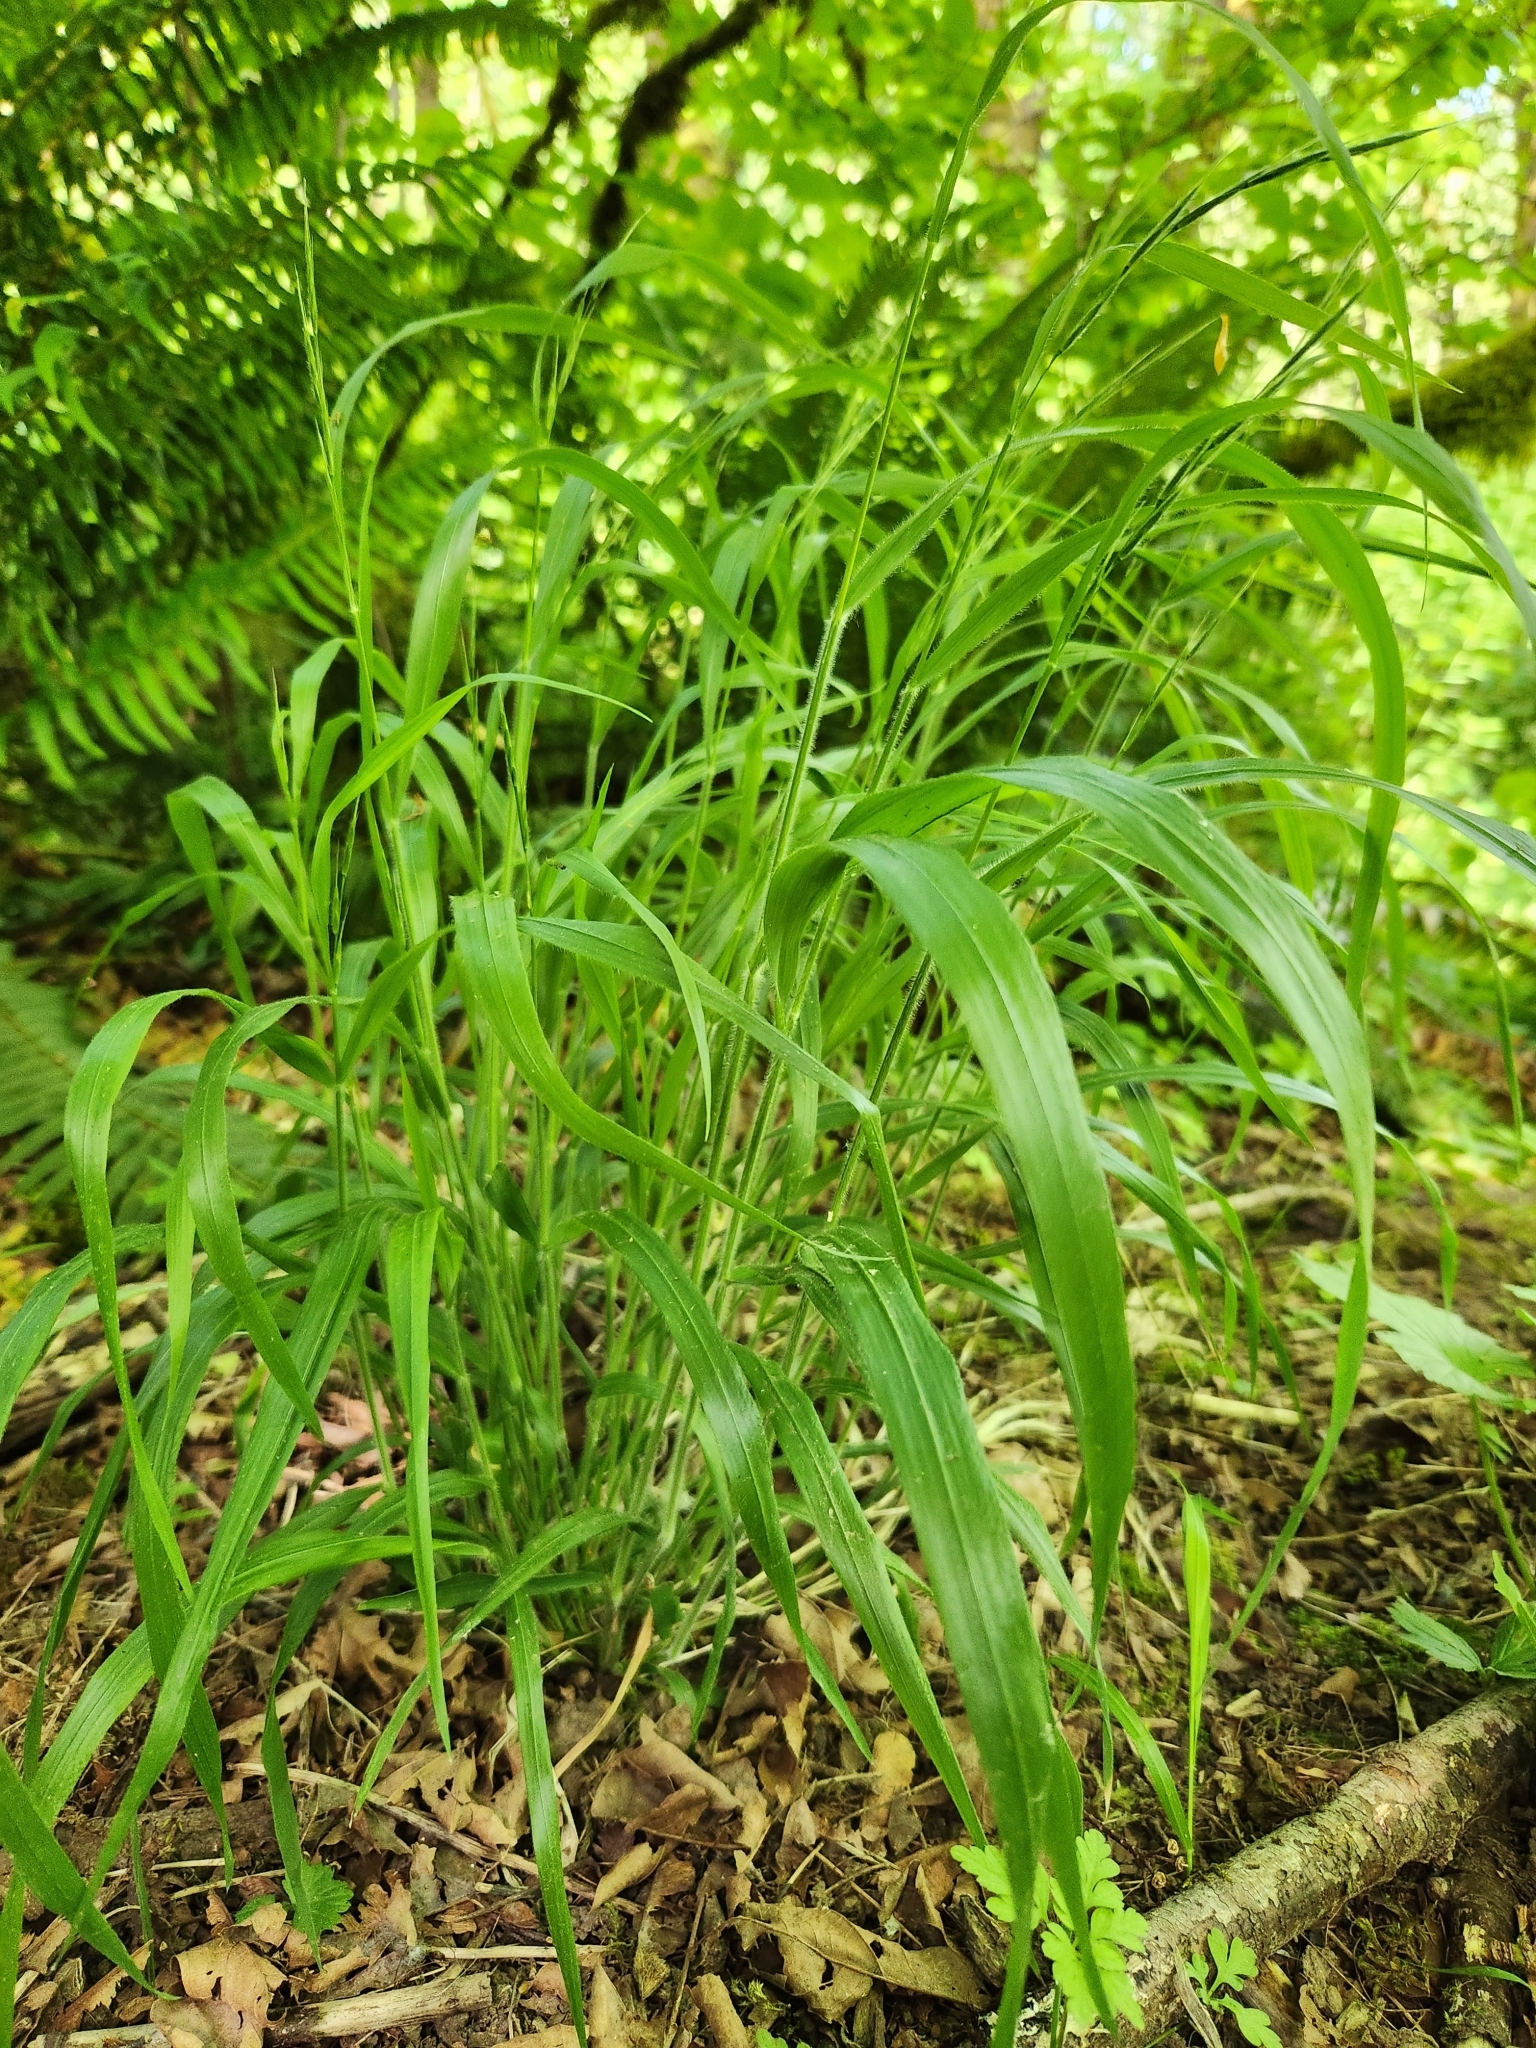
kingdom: Plantae
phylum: Tracheophyta
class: Liliopsida
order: Poales
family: Poaceae
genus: Brachypodium
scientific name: Brachypodium sylvaticum
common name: False-brome
